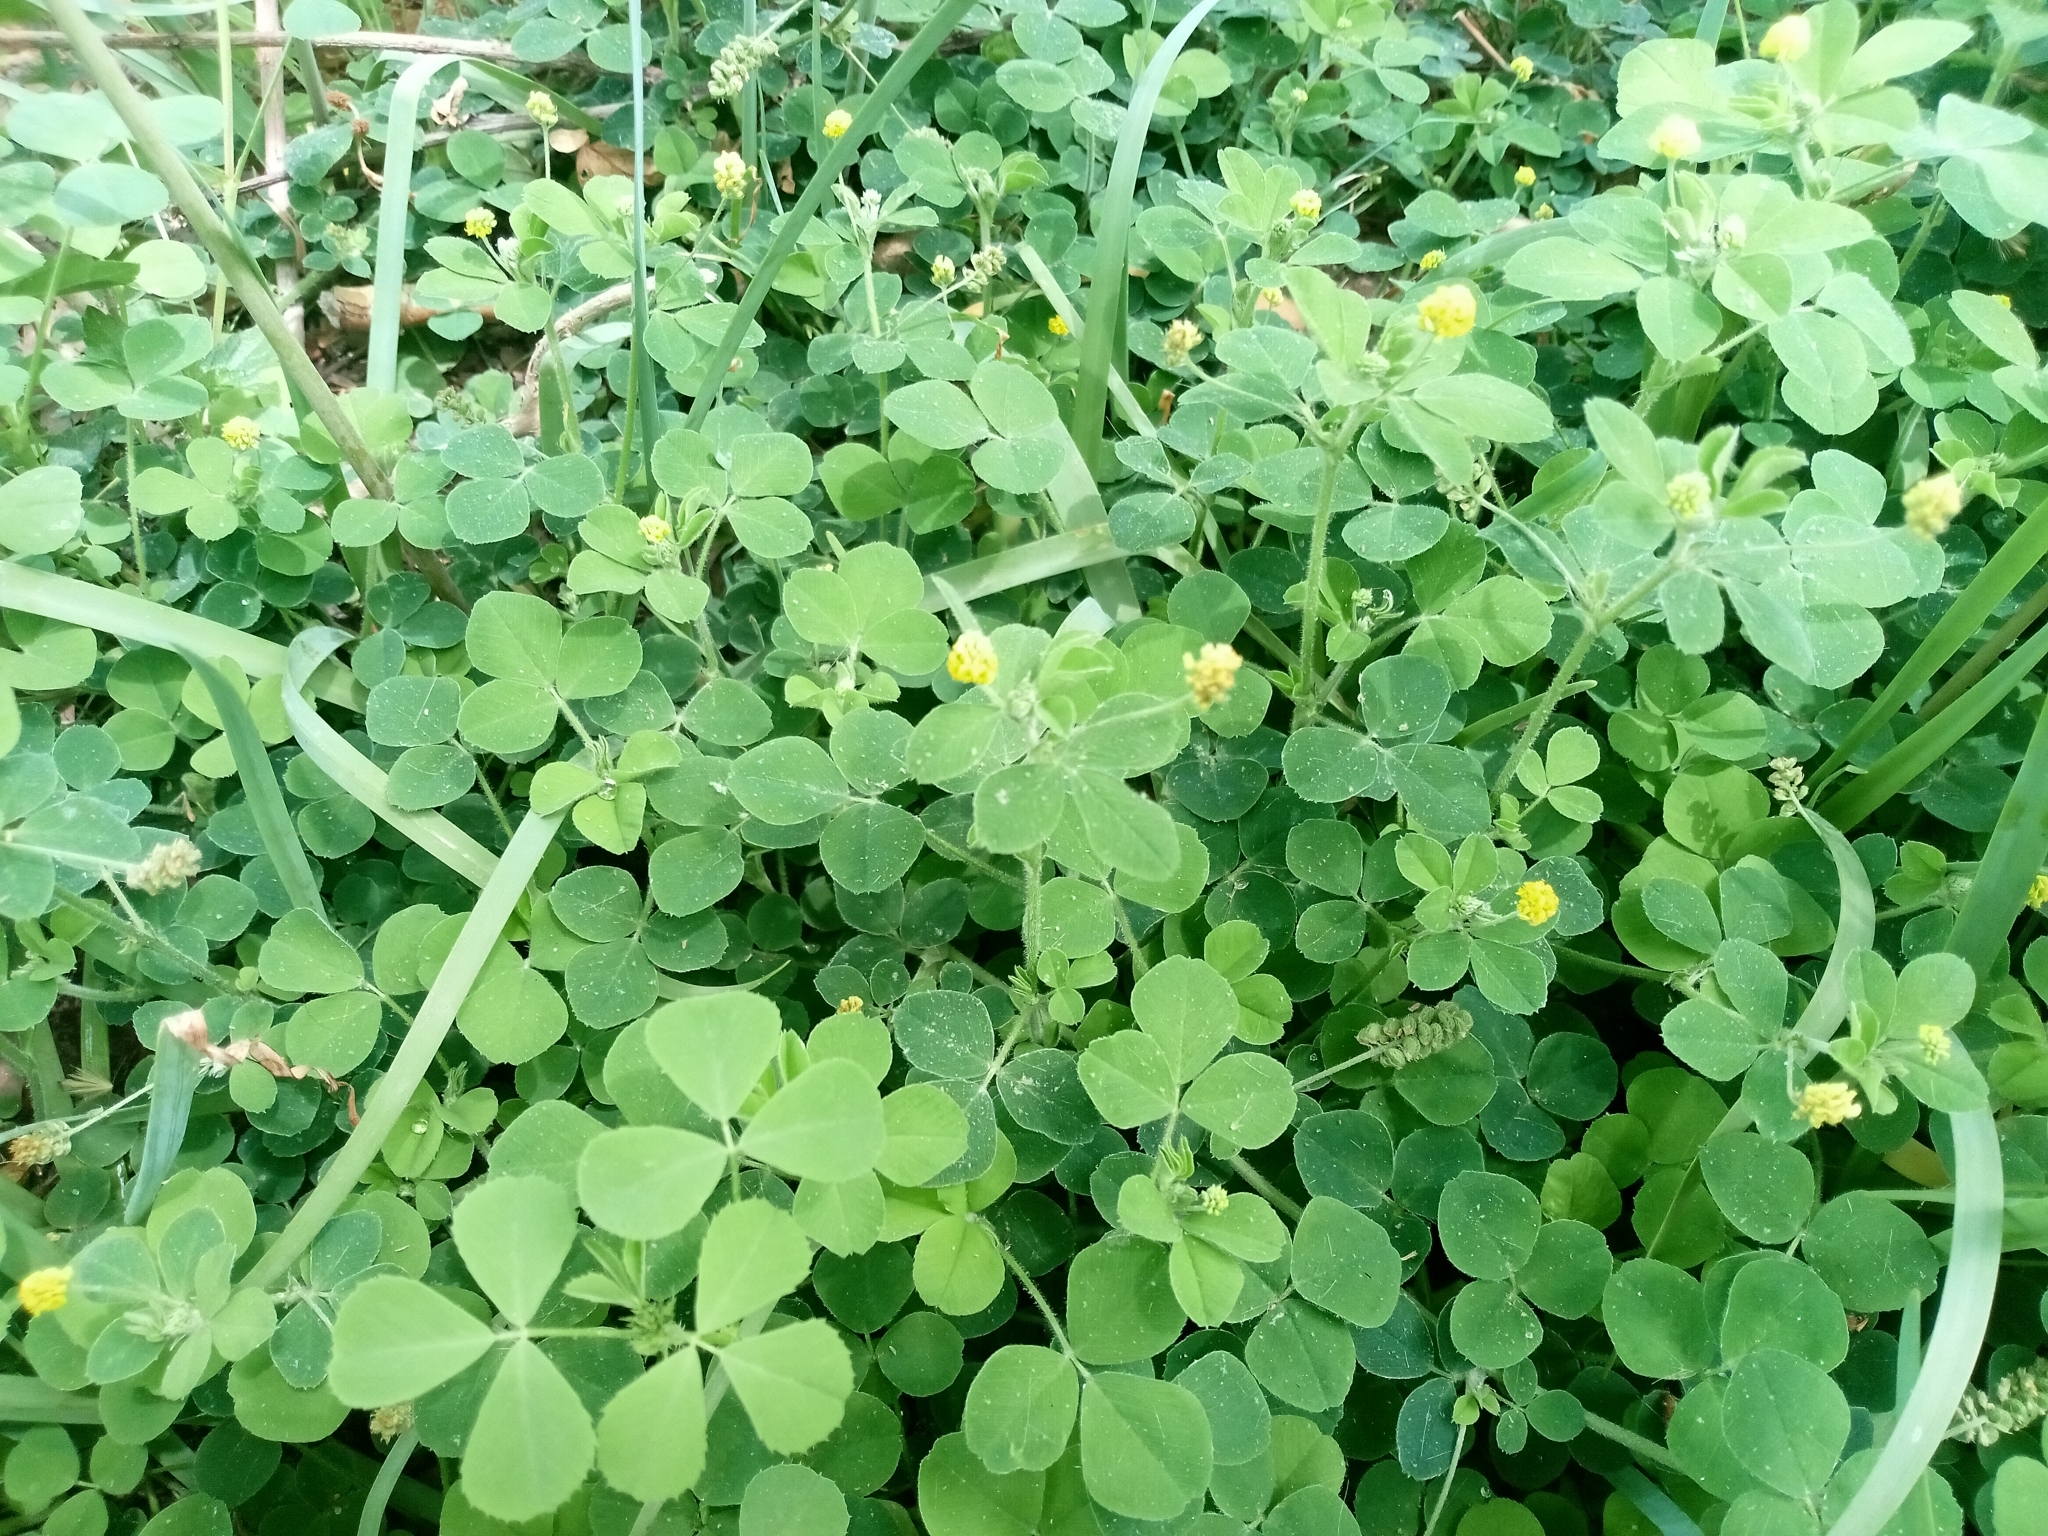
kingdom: Plantae
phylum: Tracheophyta
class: Magnoliopsida
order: Fabales
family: Fabaceae
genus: Medicago
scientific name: Medicago lupulina
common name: Black medick
